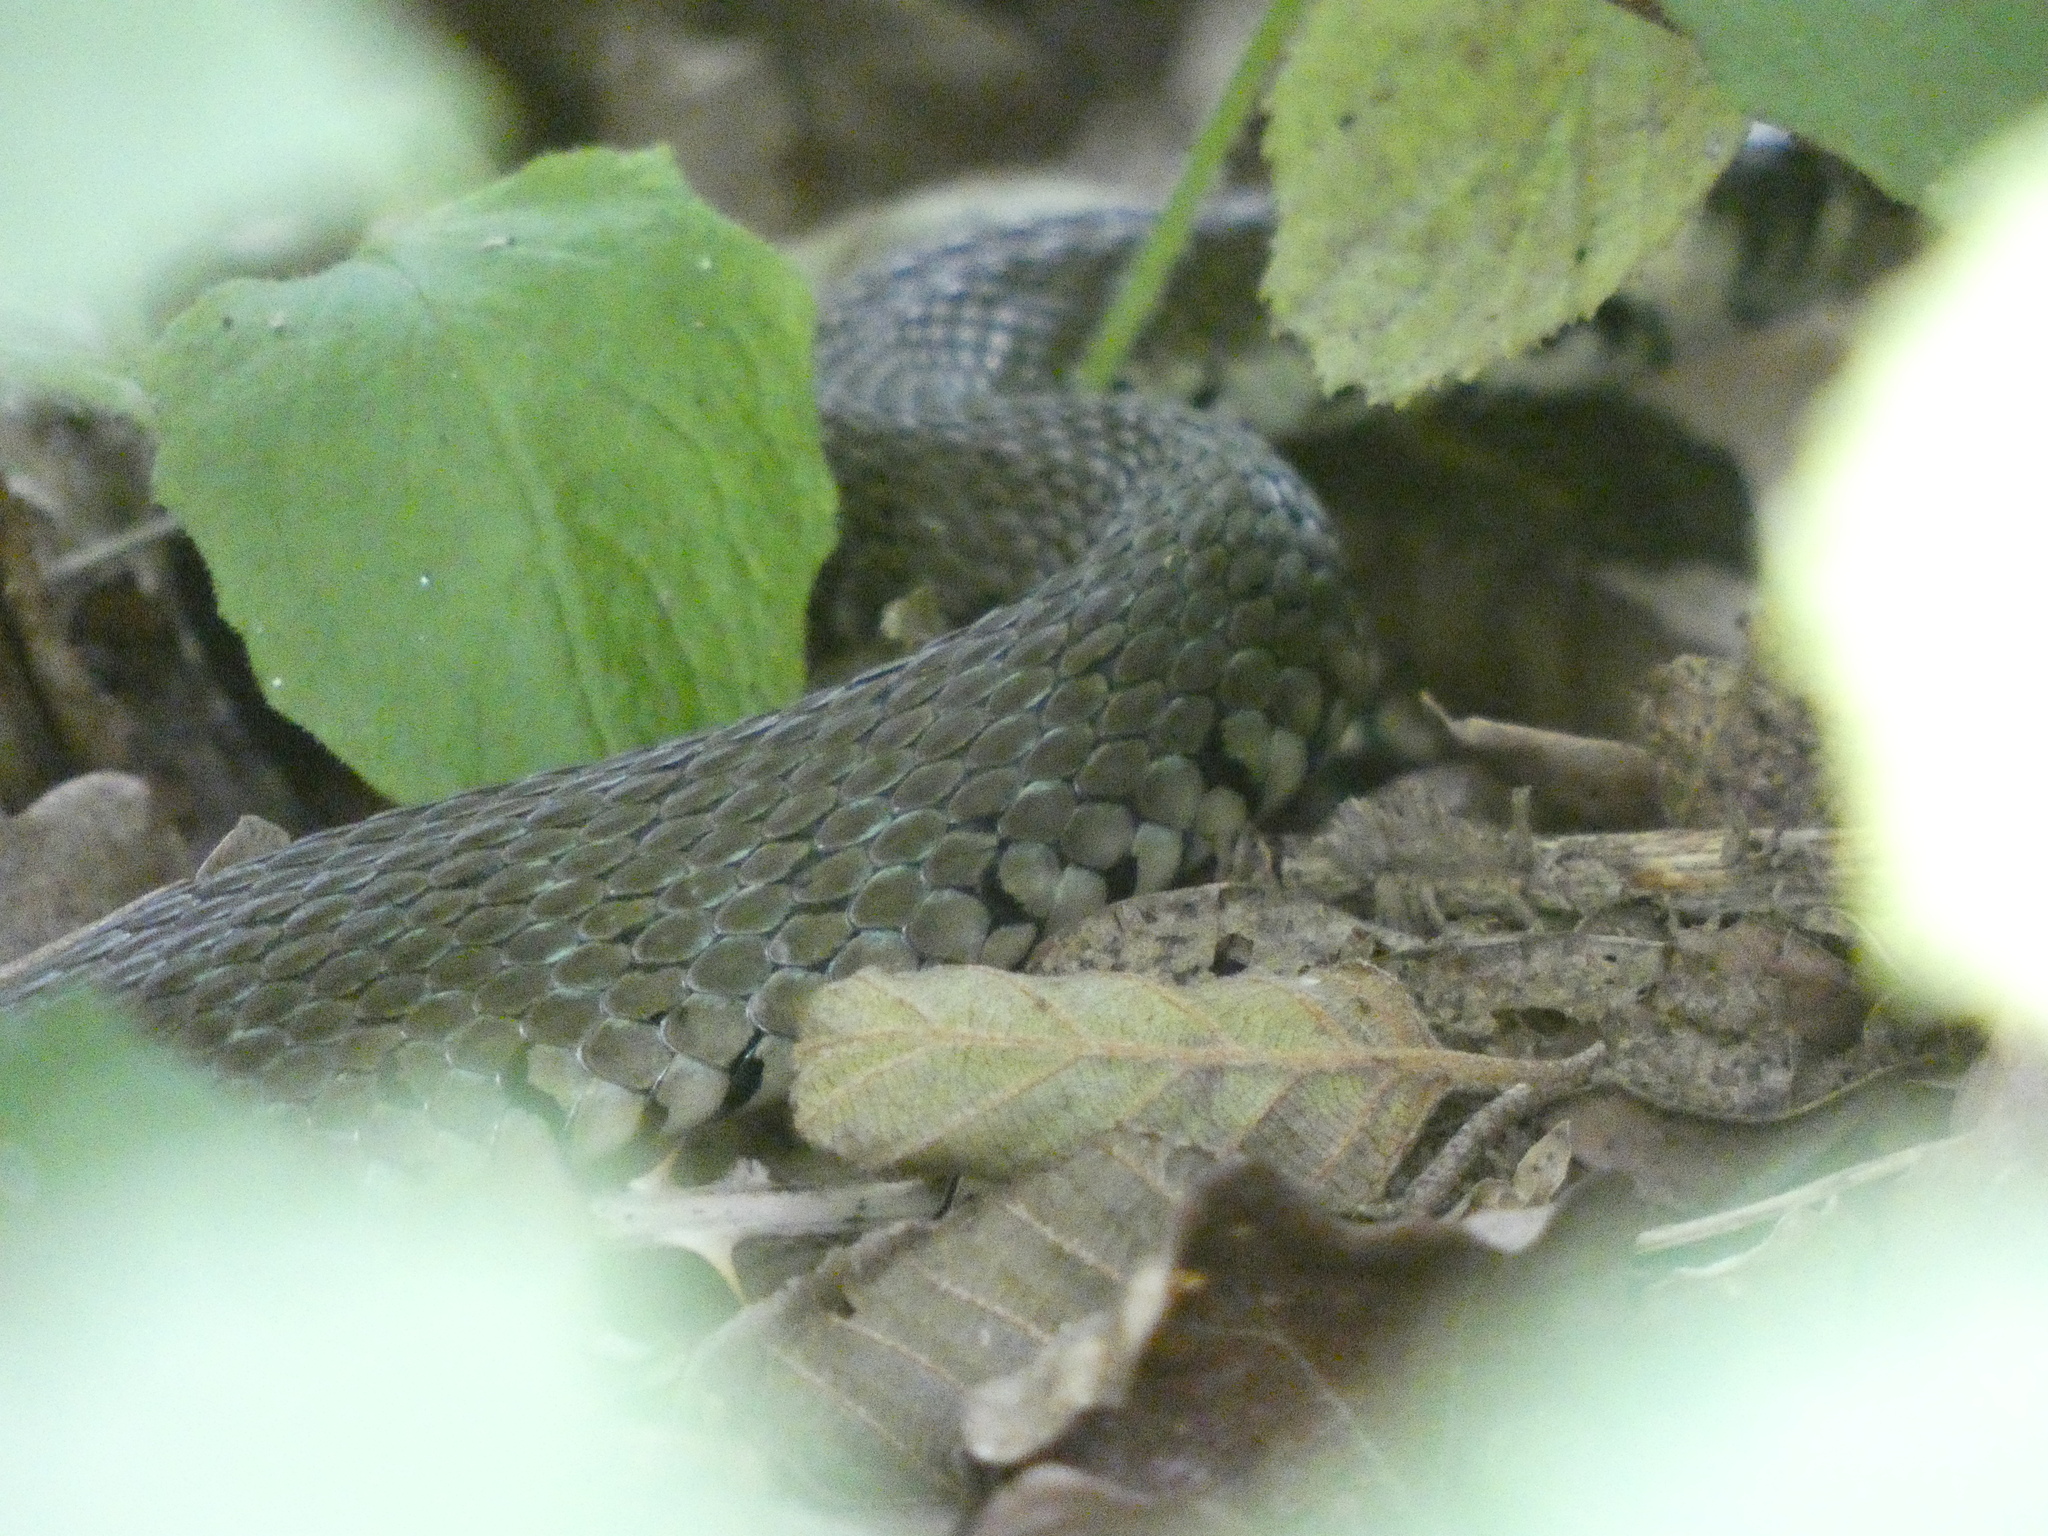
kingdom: Animalia
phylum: Chordata
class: Squamata
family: Colubridae
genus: Natrix
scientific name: Natrix helvetica
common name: Banded grass snake
